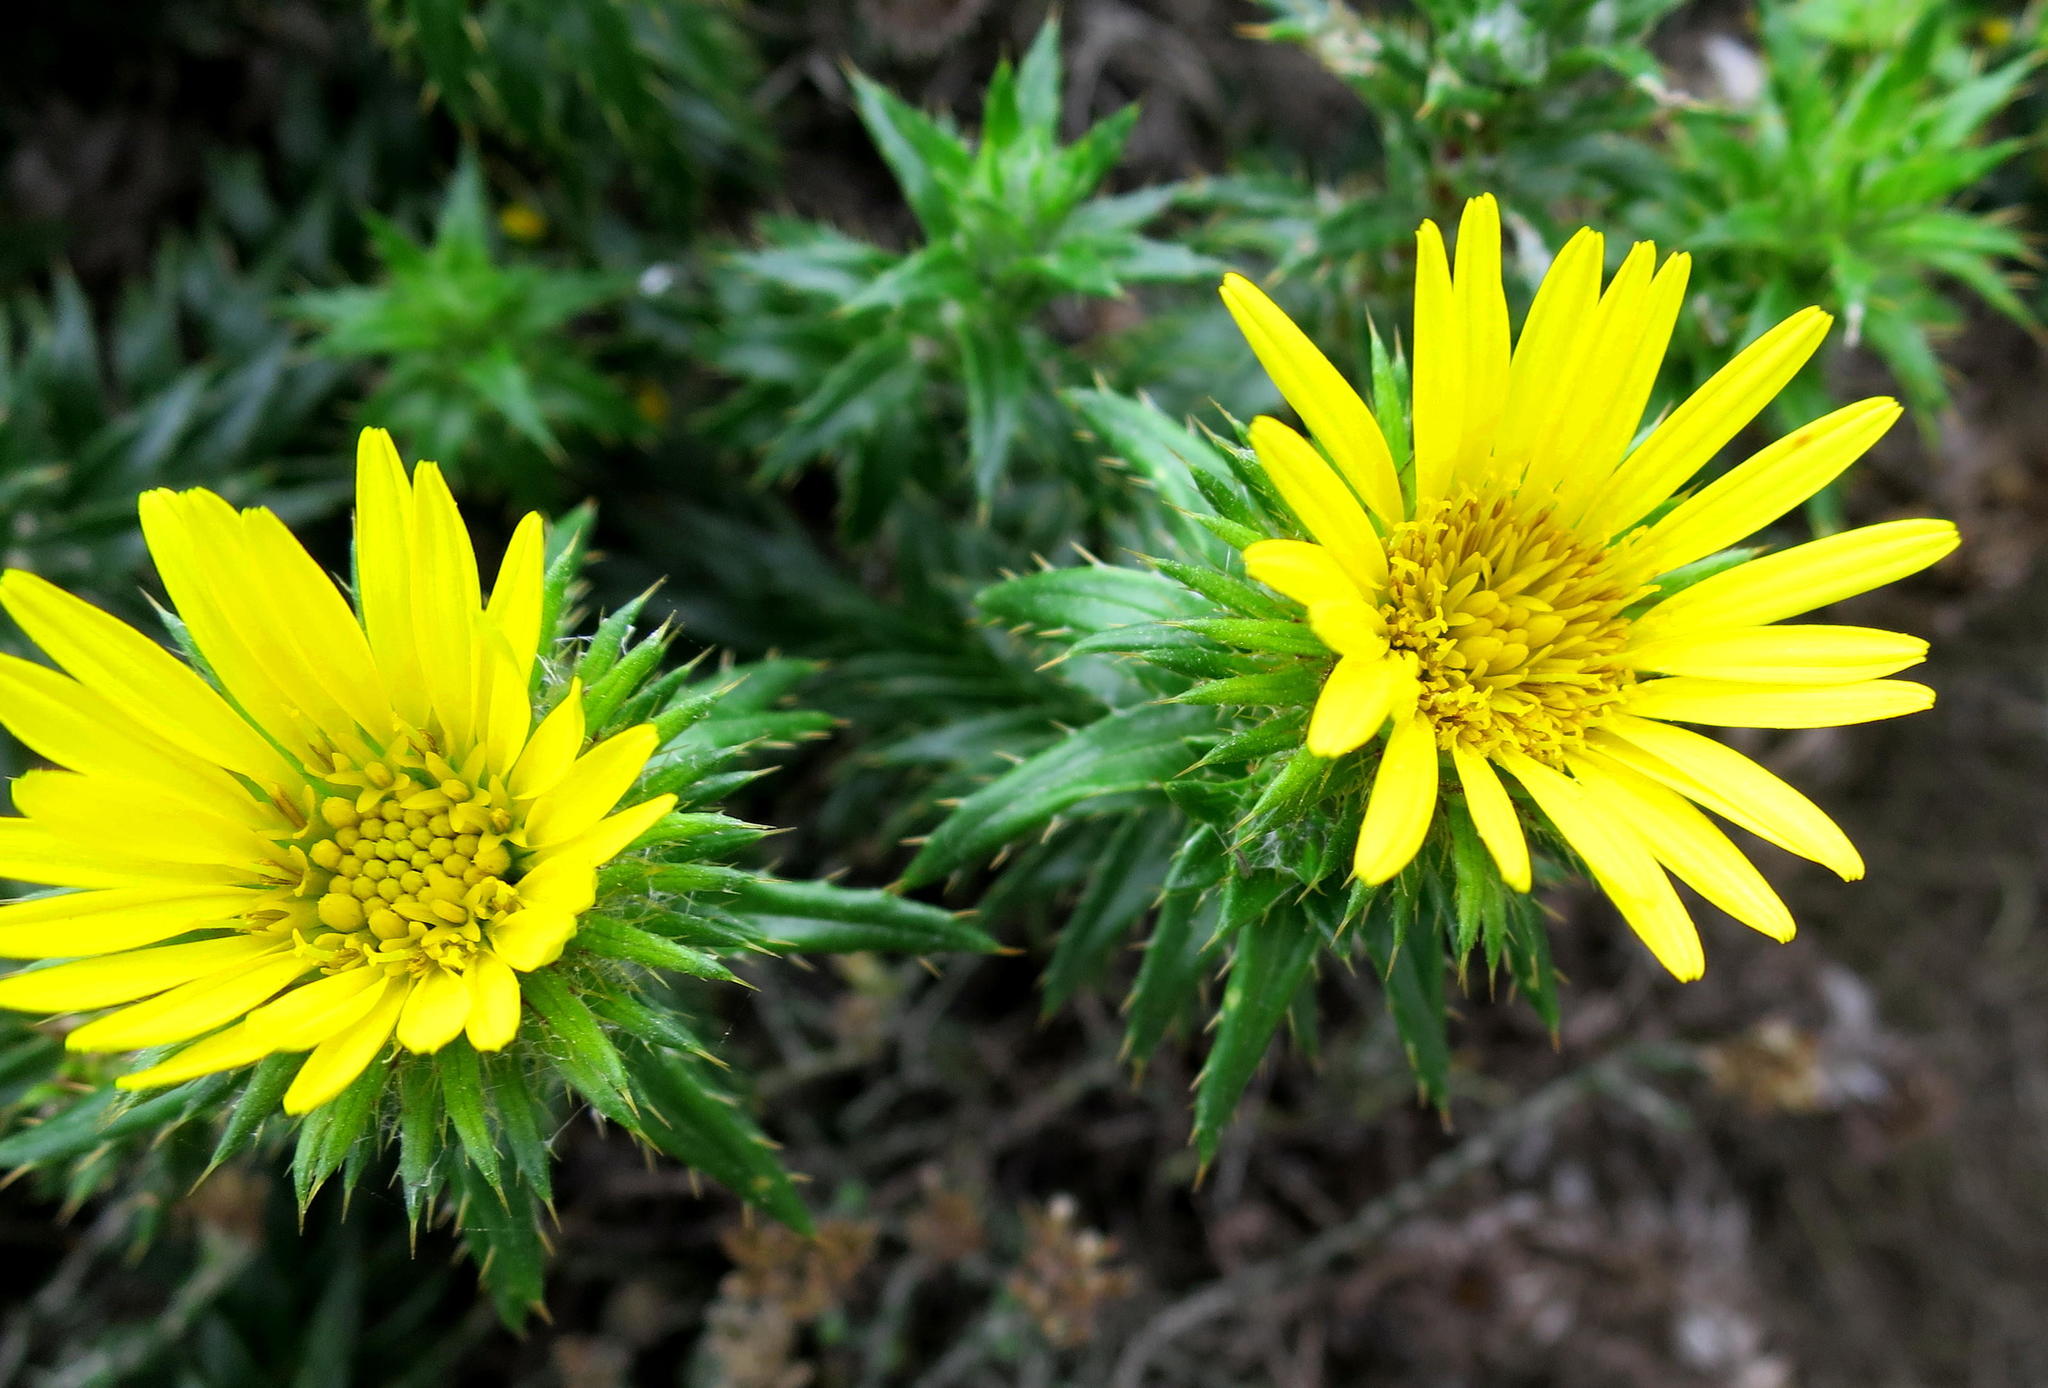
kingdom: Plantae
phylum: Tracheophyta
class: Magnoliopsida
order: Asterales
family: Asteraceae
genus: Cullumia
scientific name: Cullumia carlinoides
